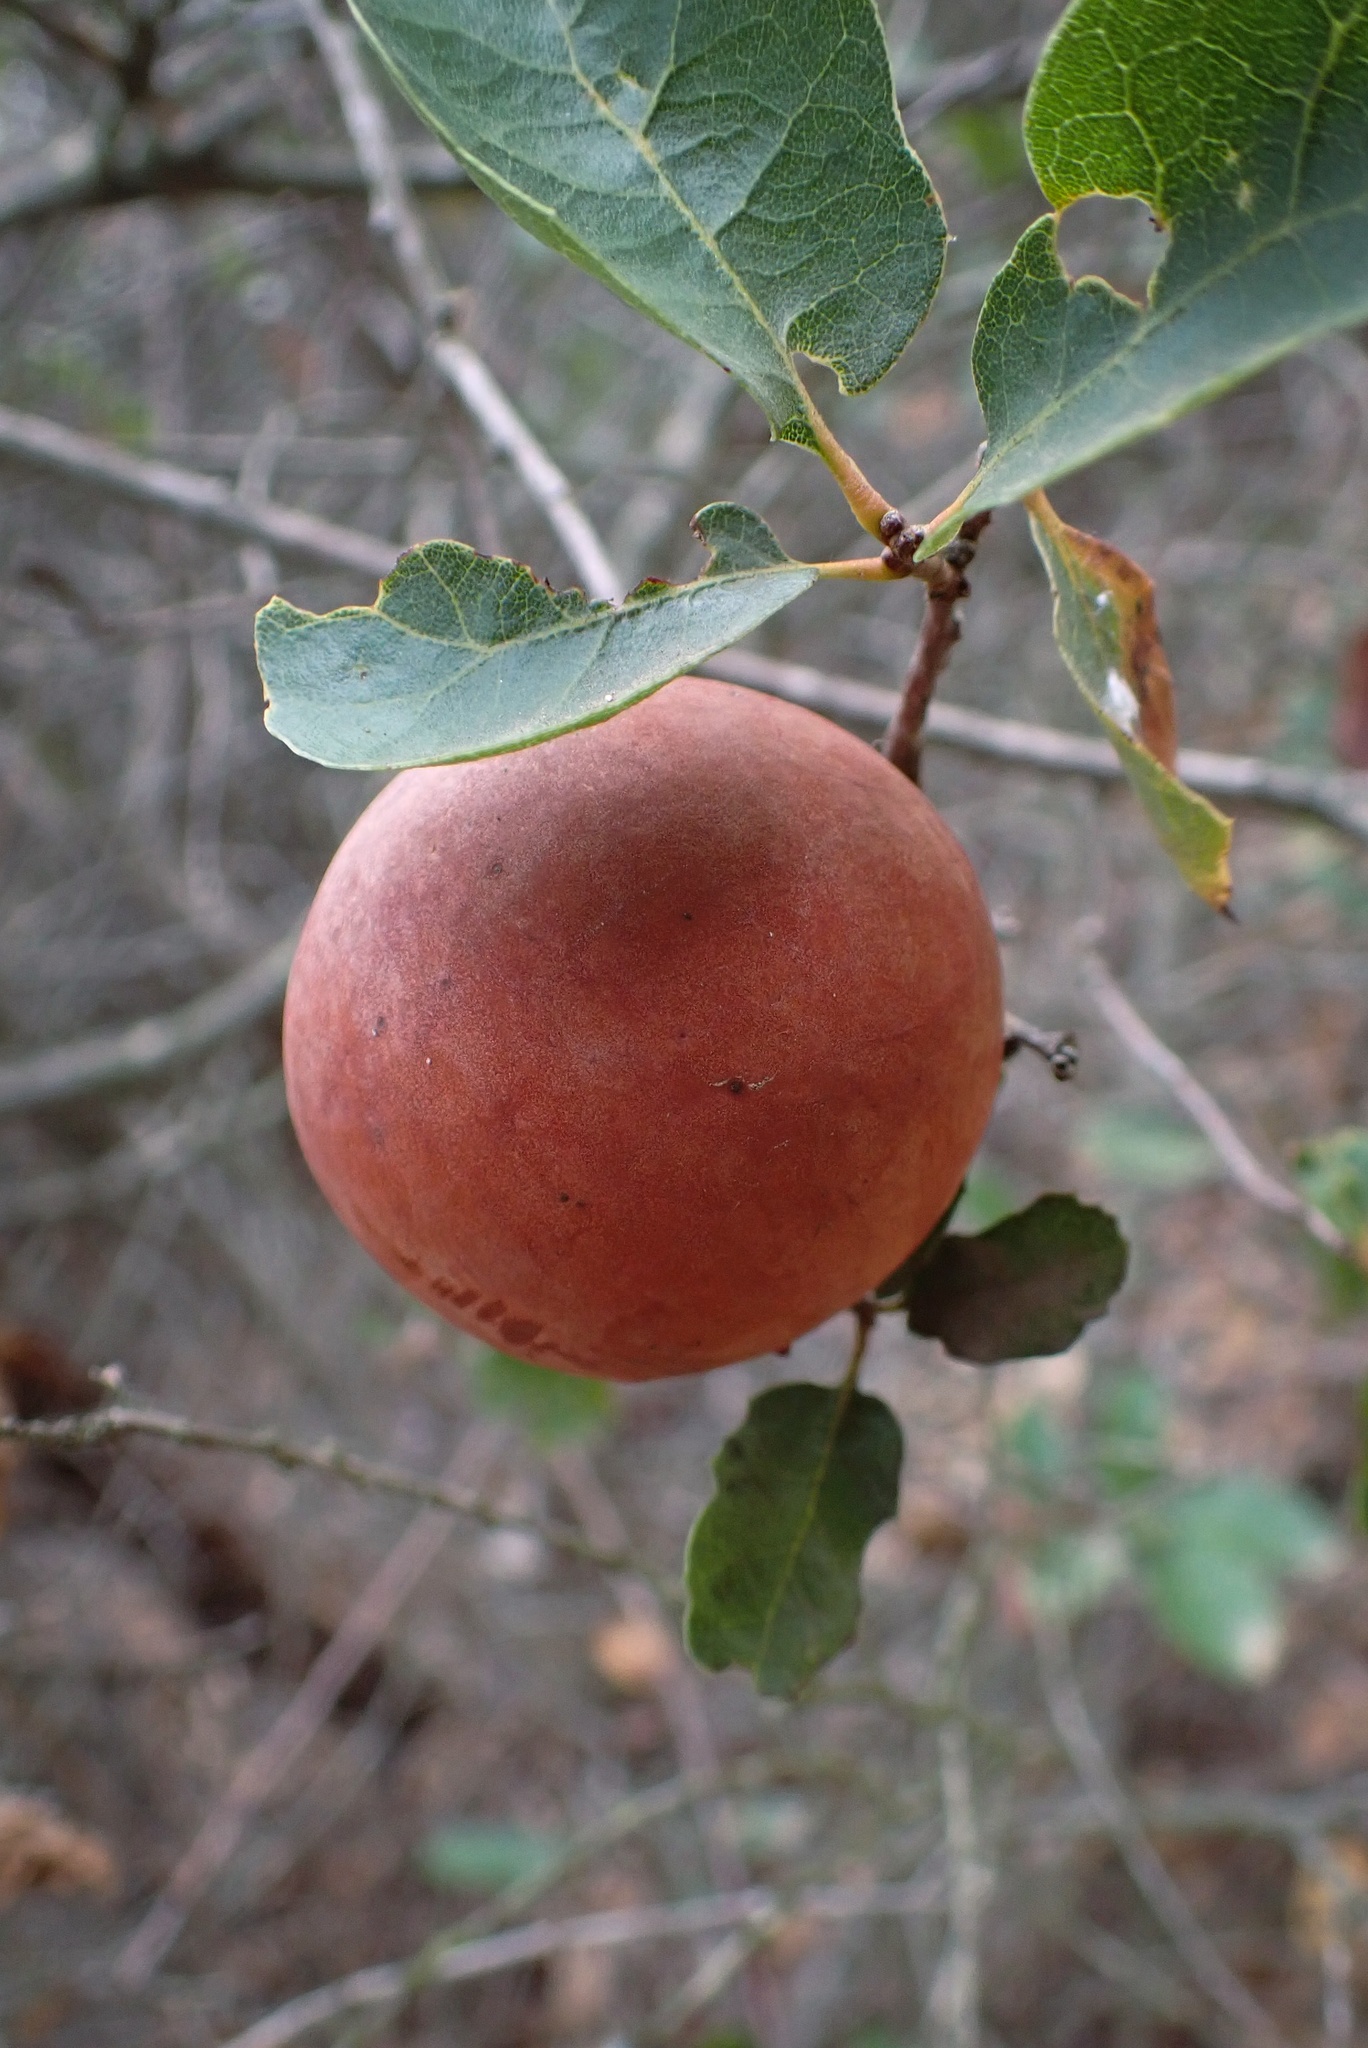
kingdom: Animalia
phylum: Arthropoda
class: Insecta
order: Hymenoptera
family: Cynipidae
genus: Andricus
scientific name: Andricus quercuscalifornicus
